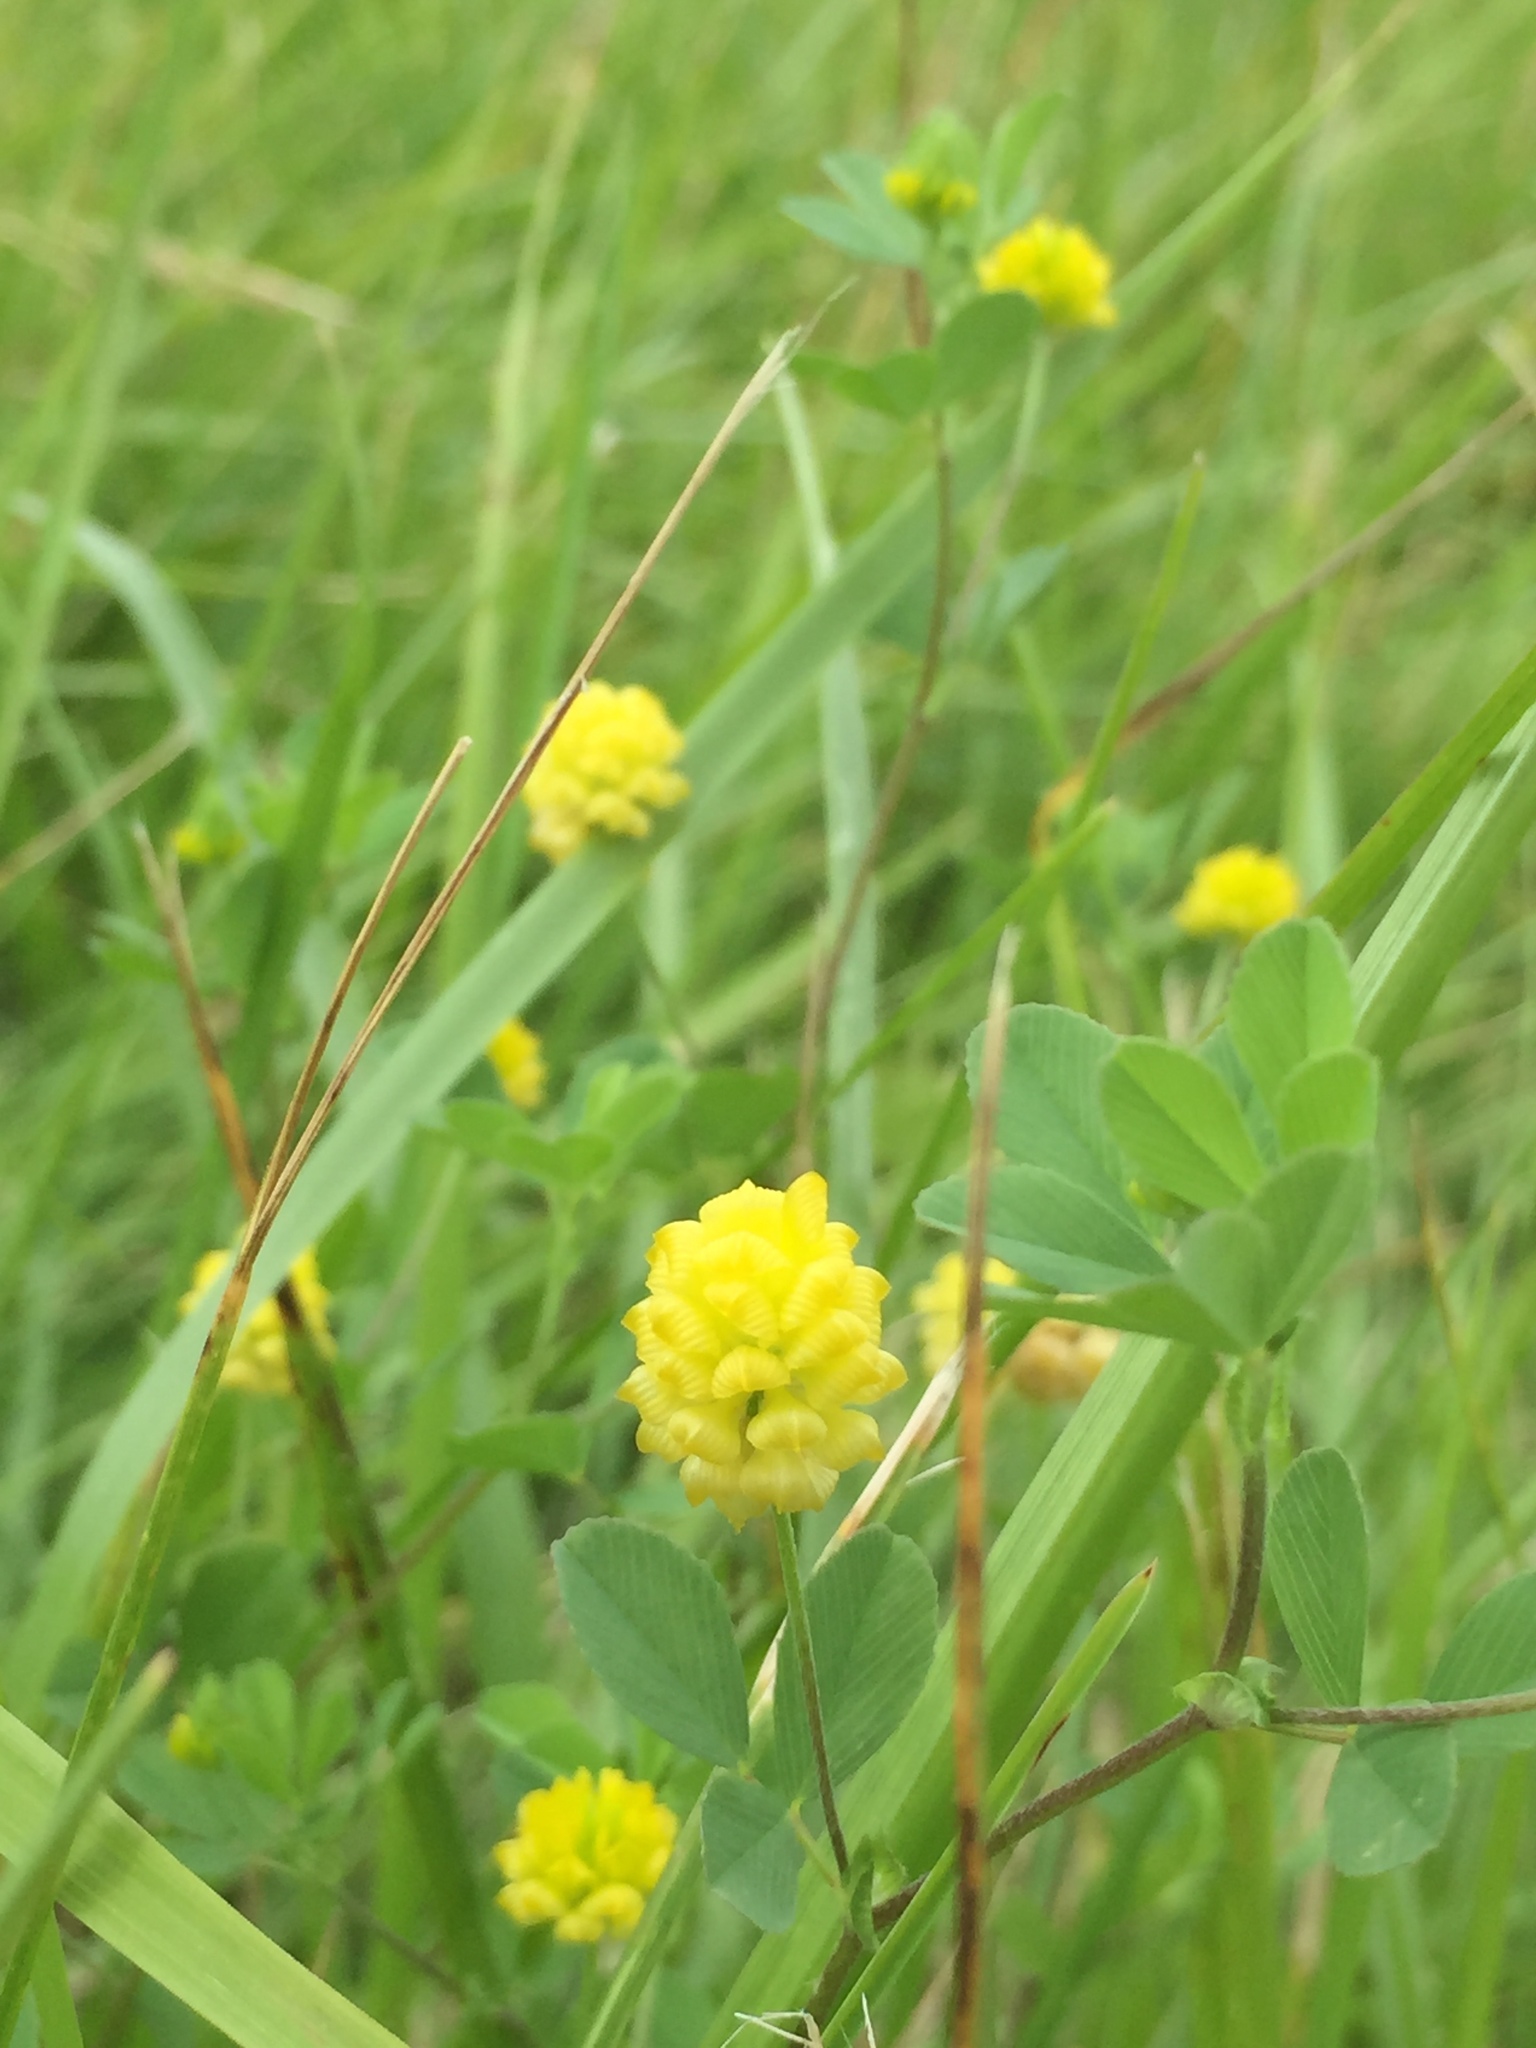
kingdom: Plantae
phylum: Tracheophyta
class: Magnoliopsida
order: Fabales
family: Fabaceae
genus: Trifolium
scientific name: Trifolium campestre
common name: Field clover
